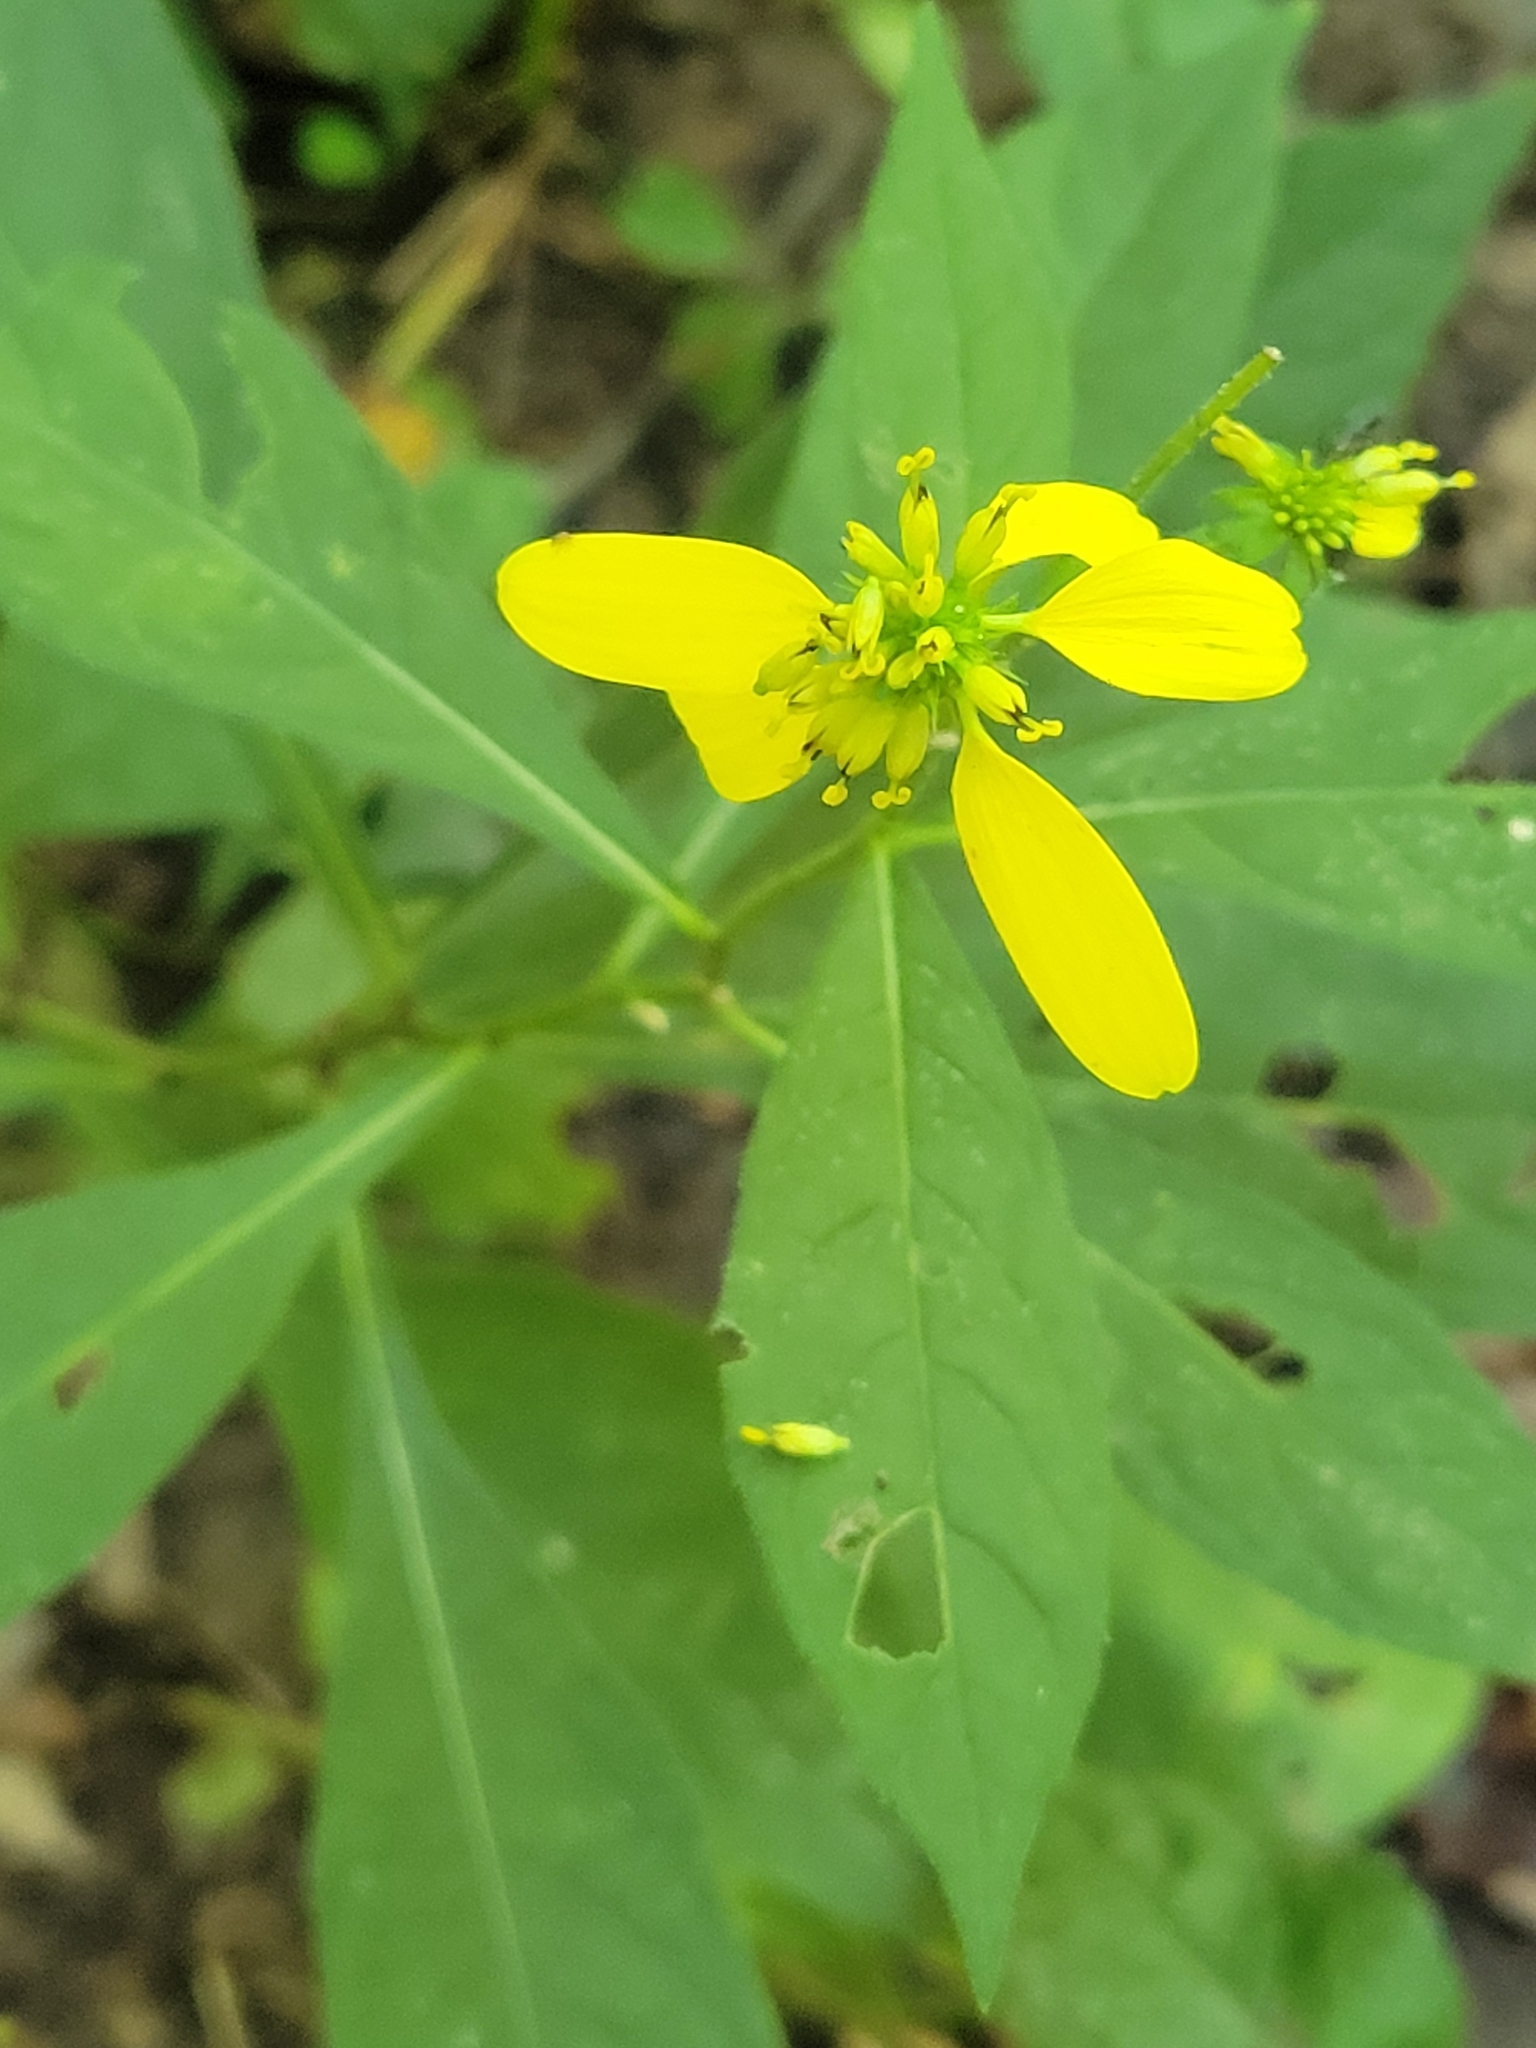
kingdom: Plantae
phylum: Tracheophyta
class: Magnoliopsida
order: Asterales
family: Asteraceae
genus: Verbesina
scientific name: Verbesina alternifolia
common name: Wingstem
